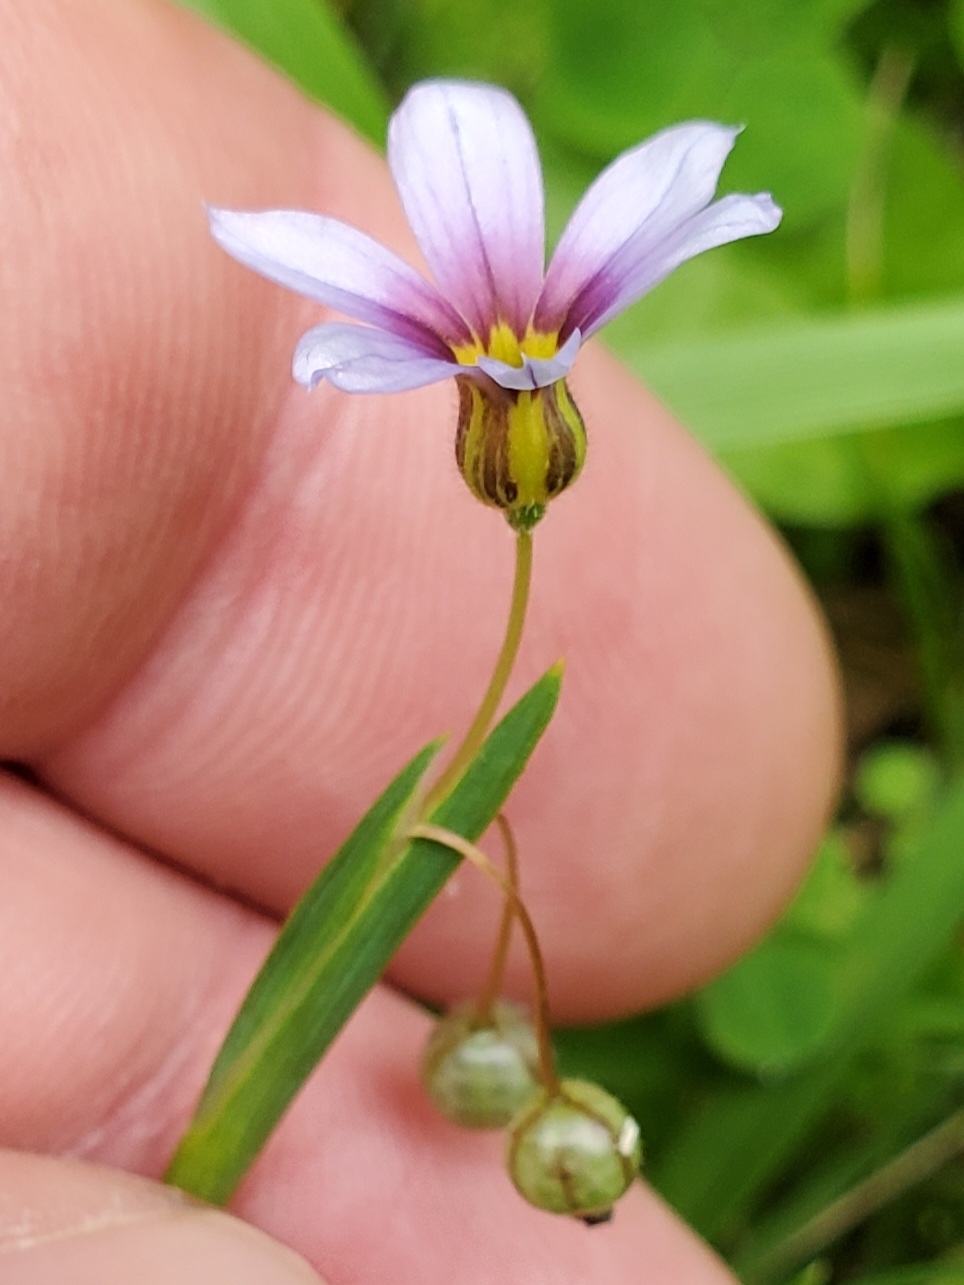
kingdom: Plantae
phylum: Tracheophyta
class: Liliopsida
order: Asparagales
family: Iridaceae
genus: Sisyrinchium
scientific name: Sisyrinchium micranthum
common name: Bermuda pigroot
